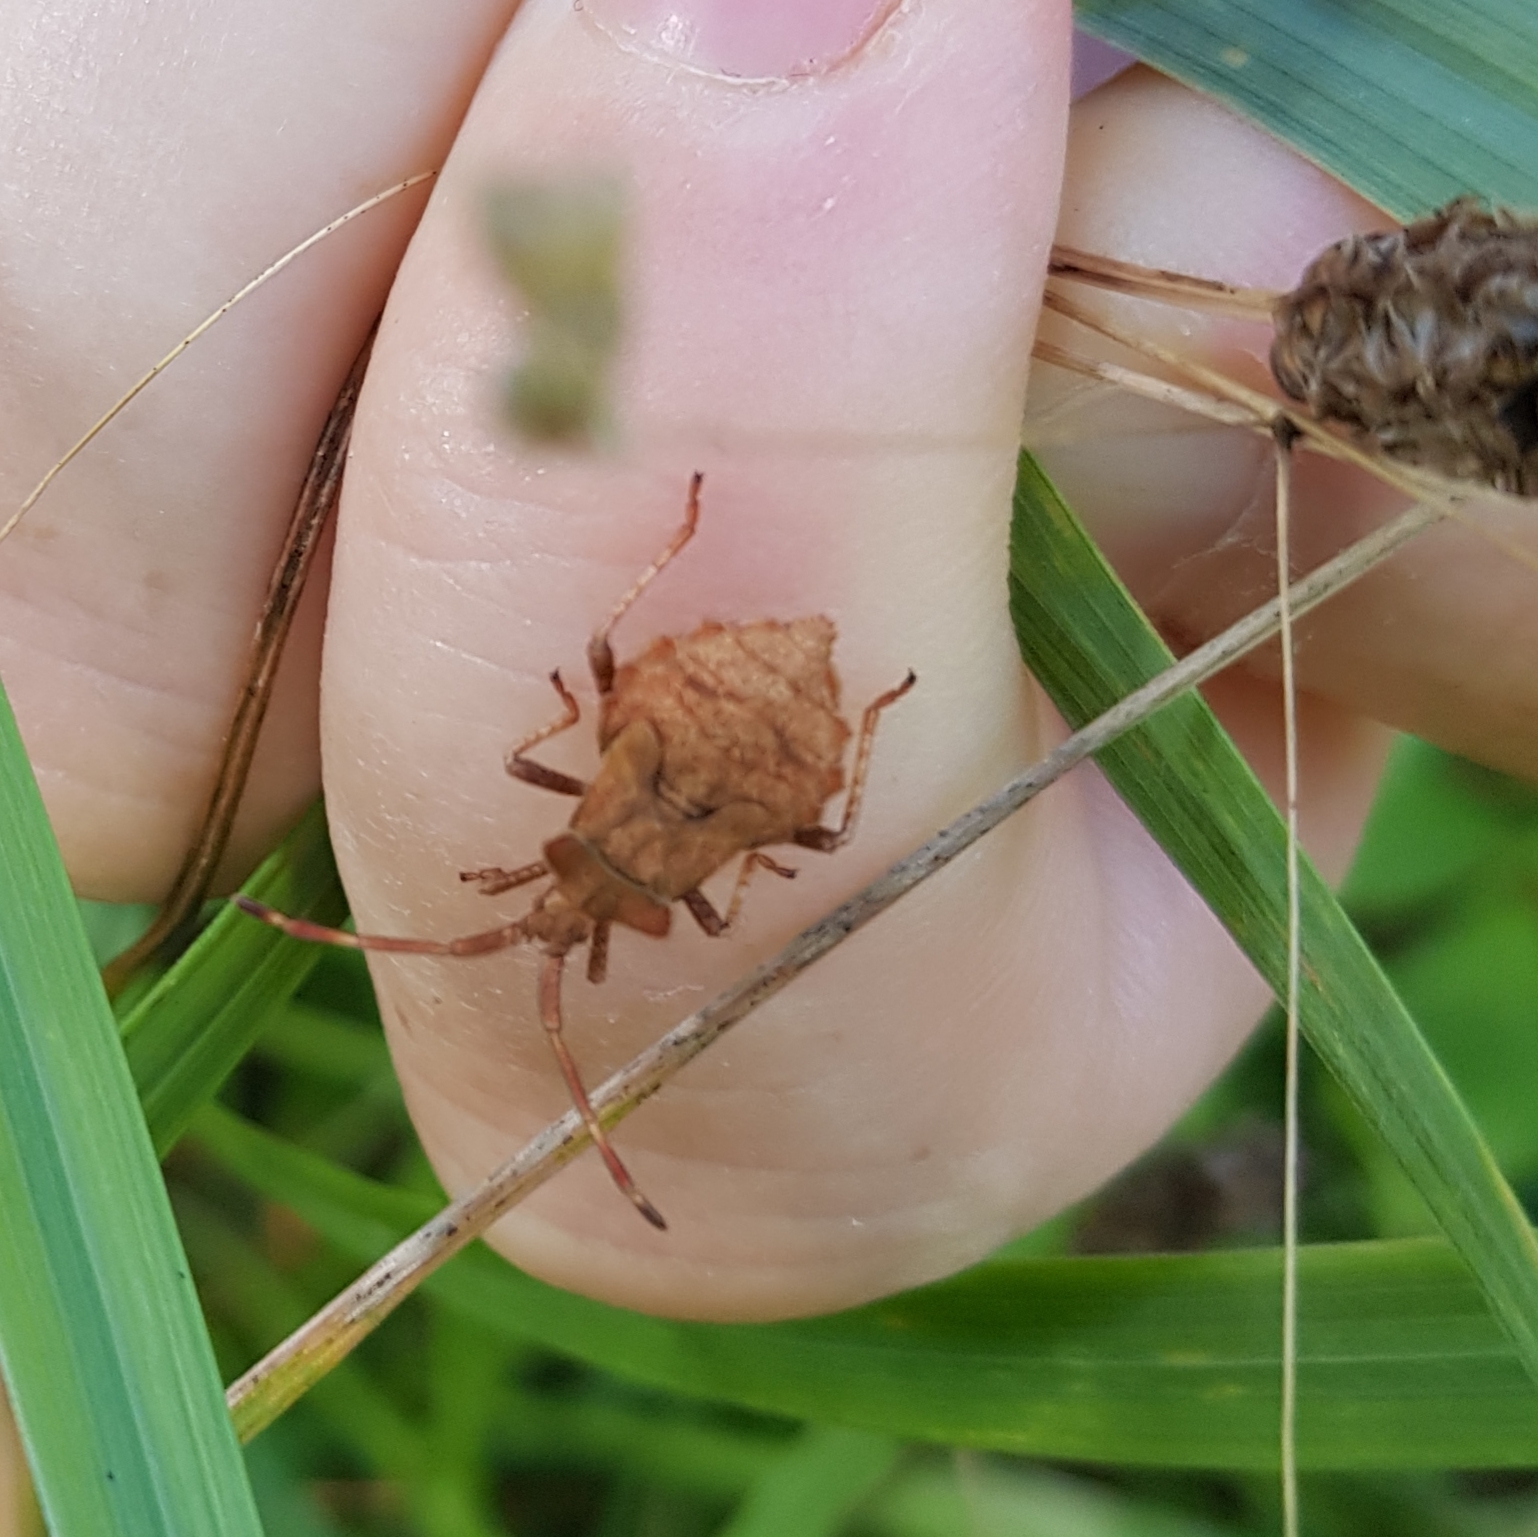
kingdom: Animalia
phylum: Arthropoda
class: Insecta
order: Hemiptera
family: Coreidae
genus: Coreus
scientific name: Coreus marginatus
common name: Dock bug
